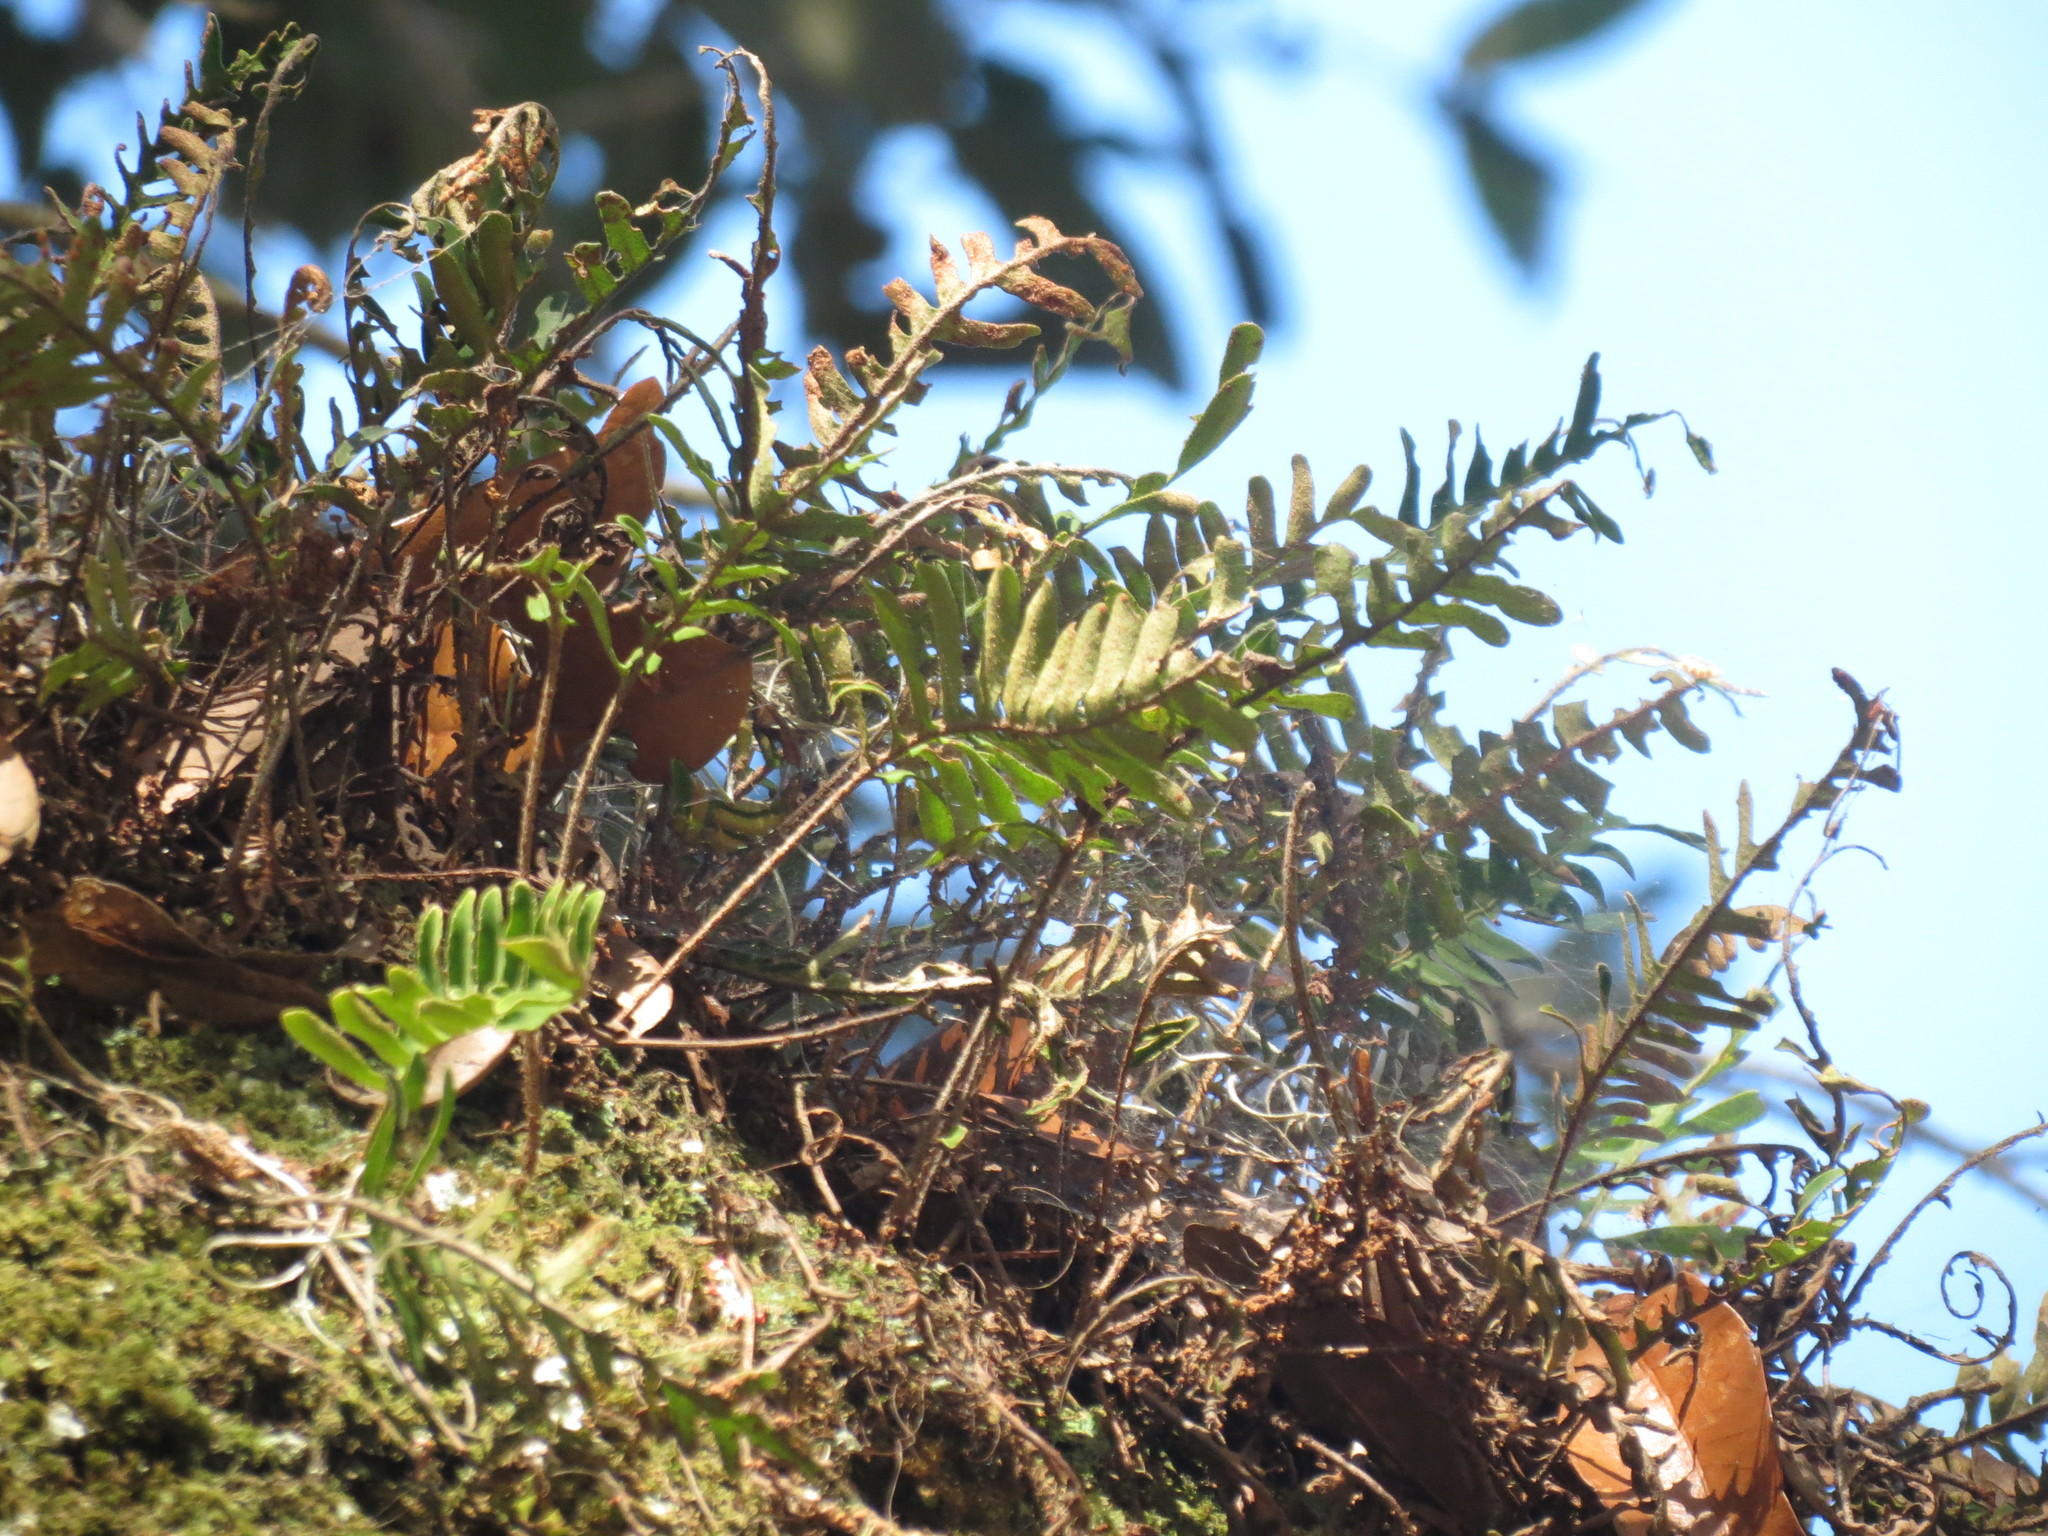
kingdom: Plantae
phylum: Tracheophyta
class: Polypodiopsida
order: Polypodiales
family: Polypodiaceae
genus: Pleopeltis
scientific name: Pleopeltis michauxiana
